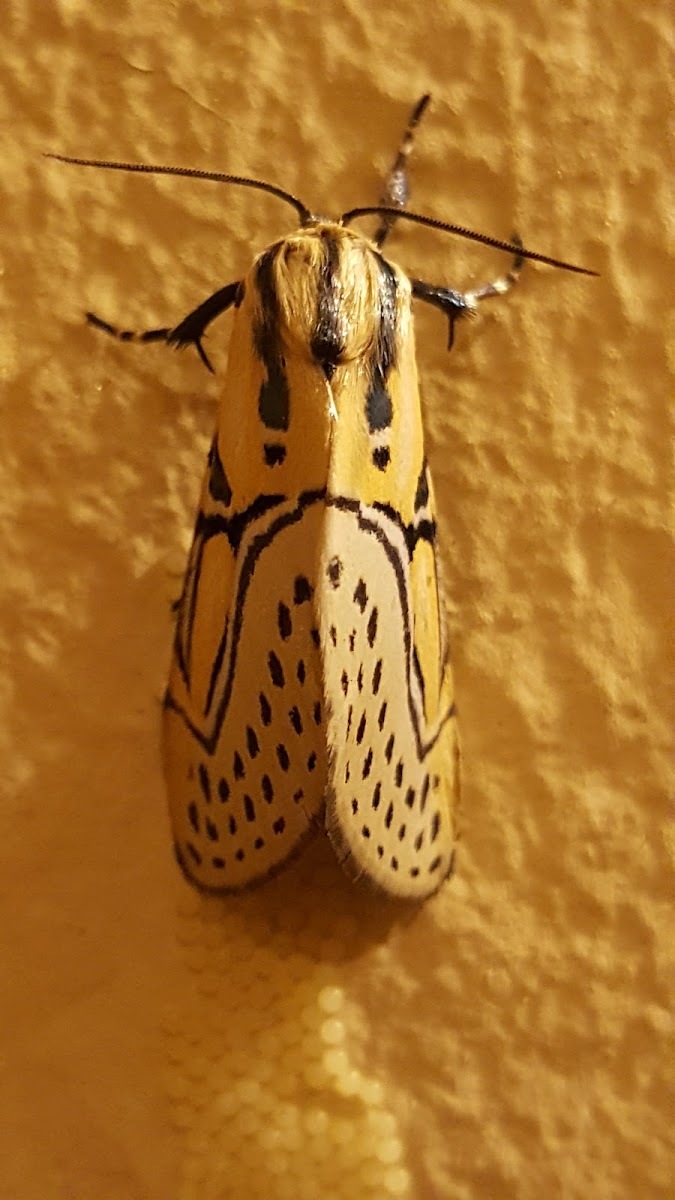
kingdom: Animalia
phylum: Arthropoda
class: Insecta
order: Lepidoptera
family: Erebidae
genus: Diphthera
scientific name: Diphthera festiva
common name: Hieroglyphic moth
